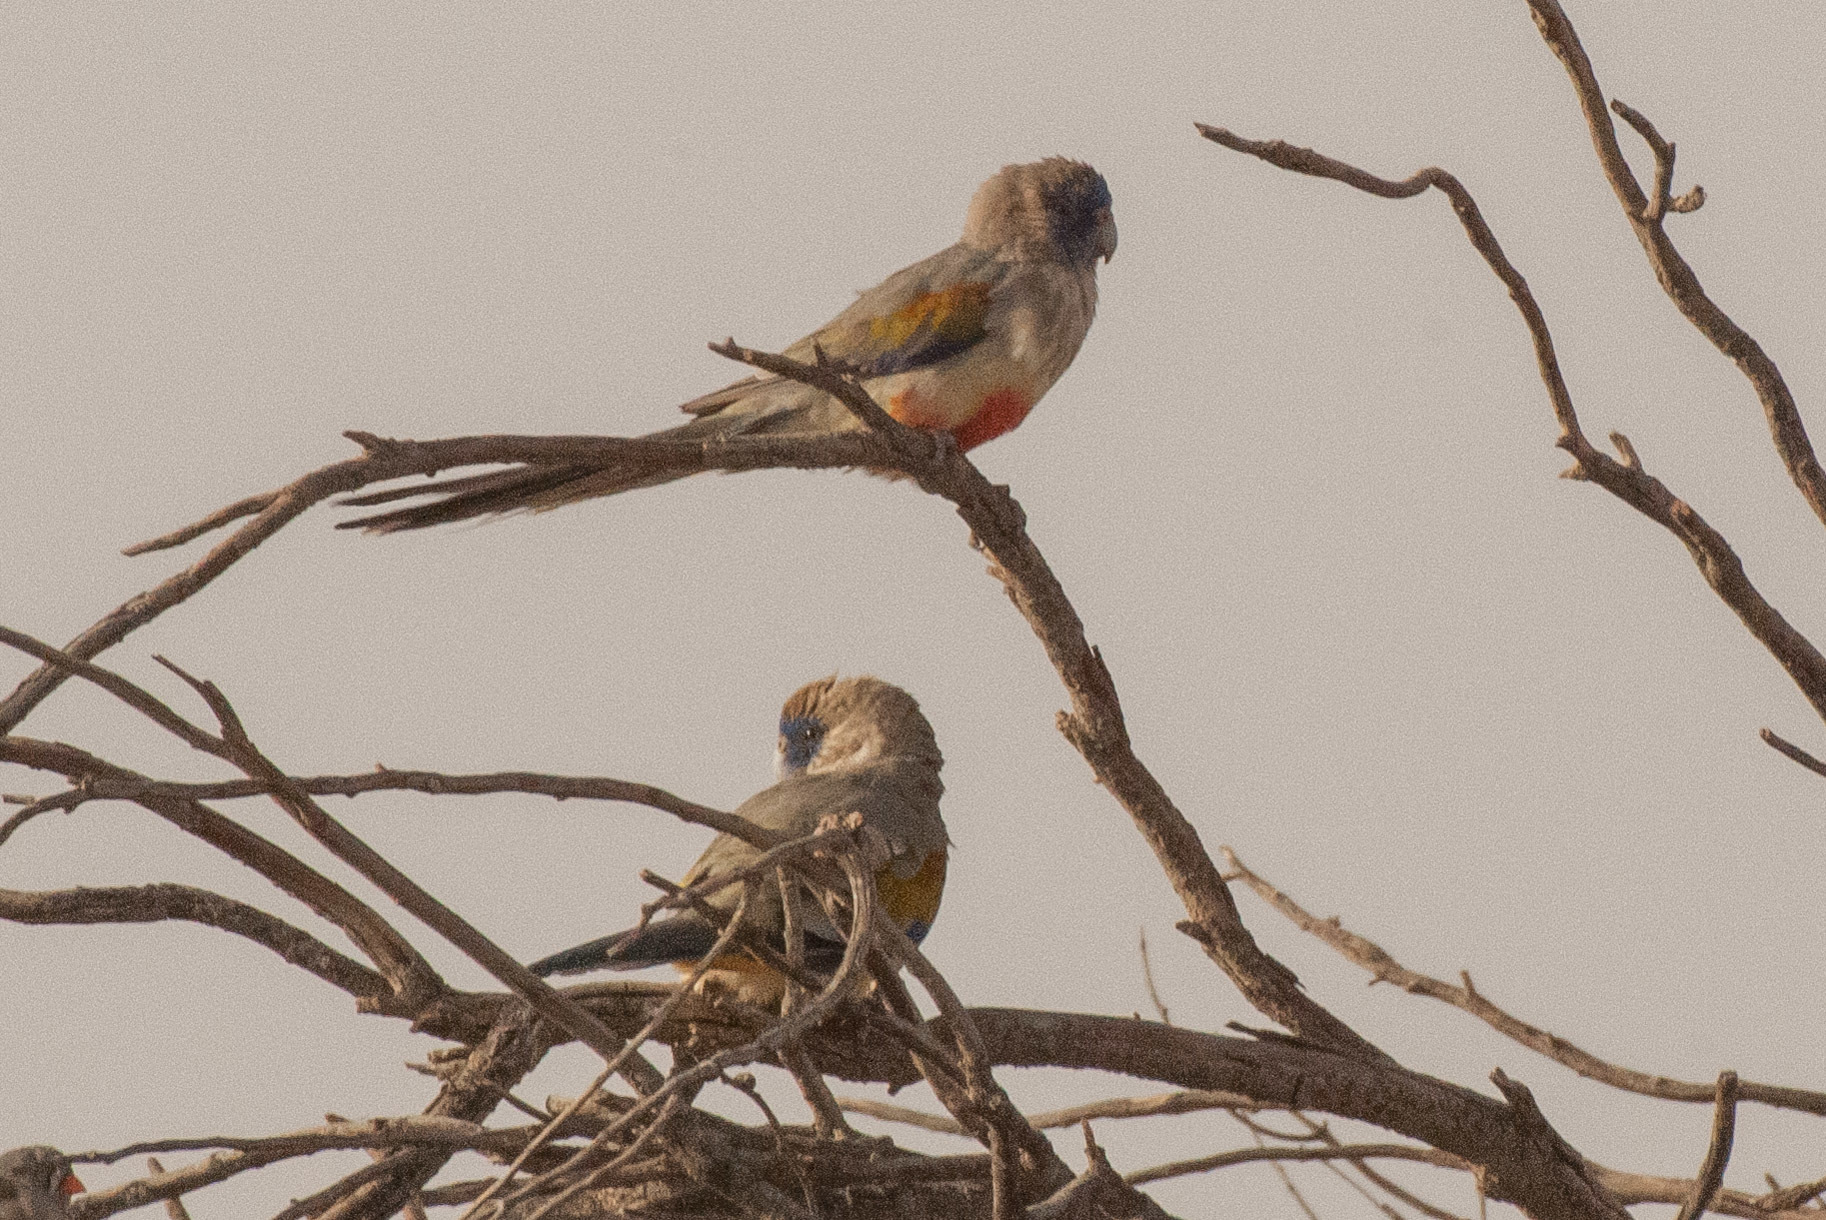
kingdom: Animalia
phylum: Chordata
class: Aves
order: Psittaciformes
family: Psittacidae
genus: Northiella
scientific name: Northiella haematogaster
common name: Bluebonnet
